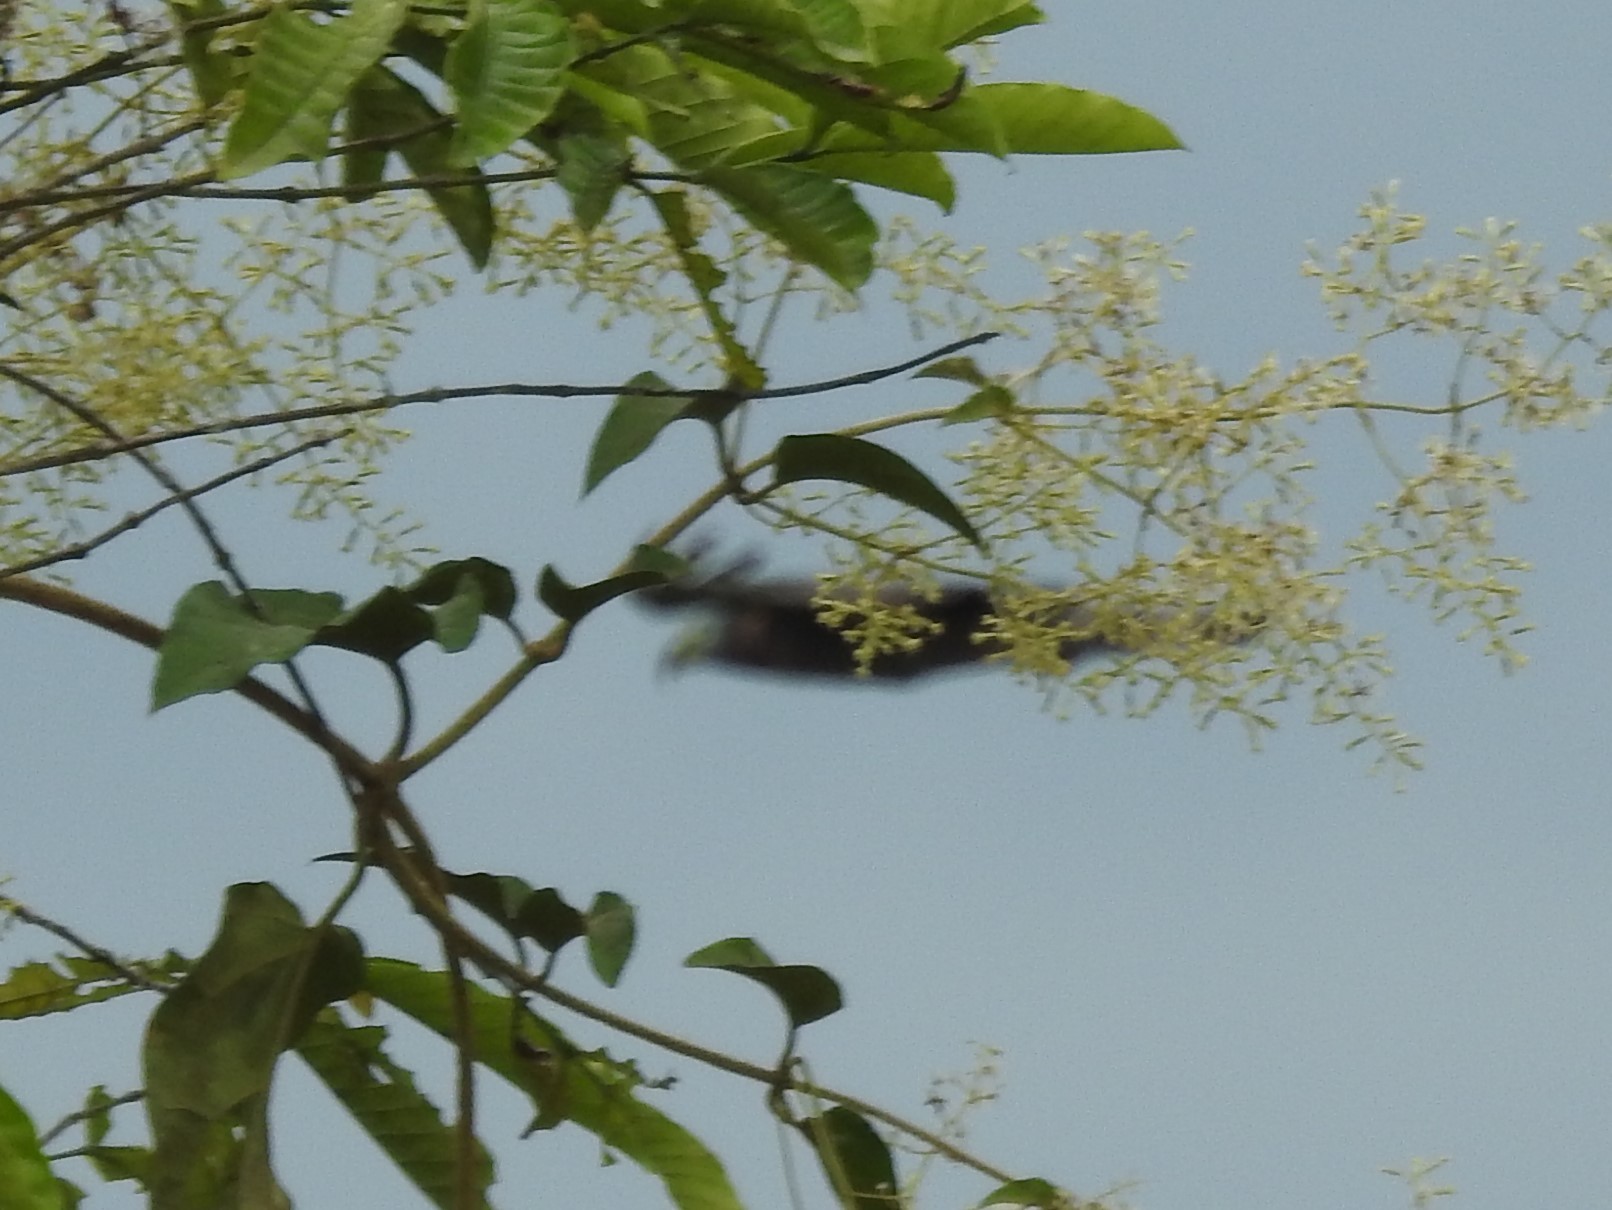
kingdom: Animalia
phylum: Chordata
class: Aves
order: Accipitriformes
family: Accipitridae
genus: Chondrohierax
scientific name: Chondrohierax uncinatus
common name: Hook-billed kite
